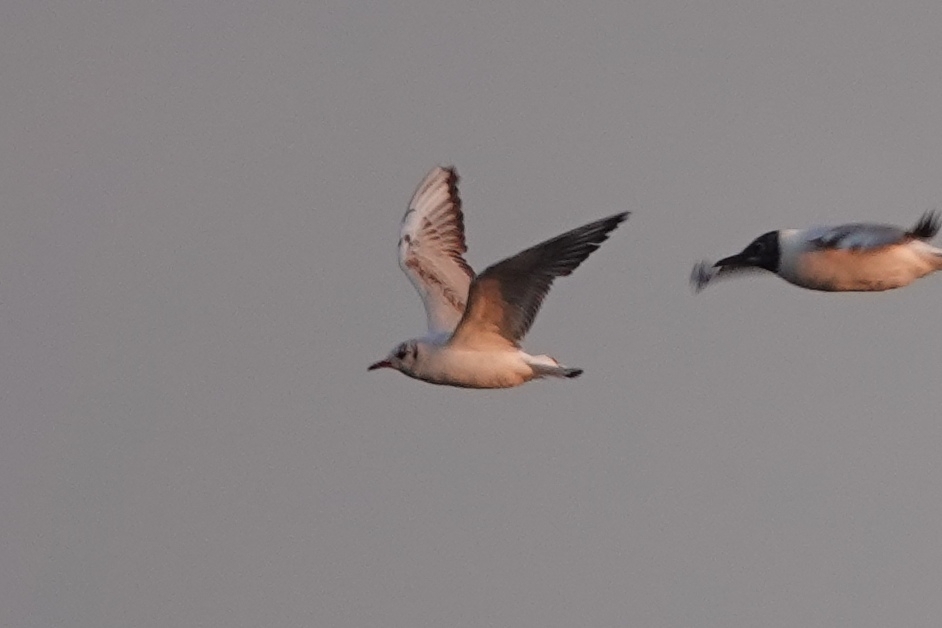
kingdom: Animalia
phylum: Chordata
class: Aves
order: Charadriiformes
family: Laridae
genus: Chroicocephalus
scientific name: Chroicocephalus ridibundus
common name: Black-headed gull
